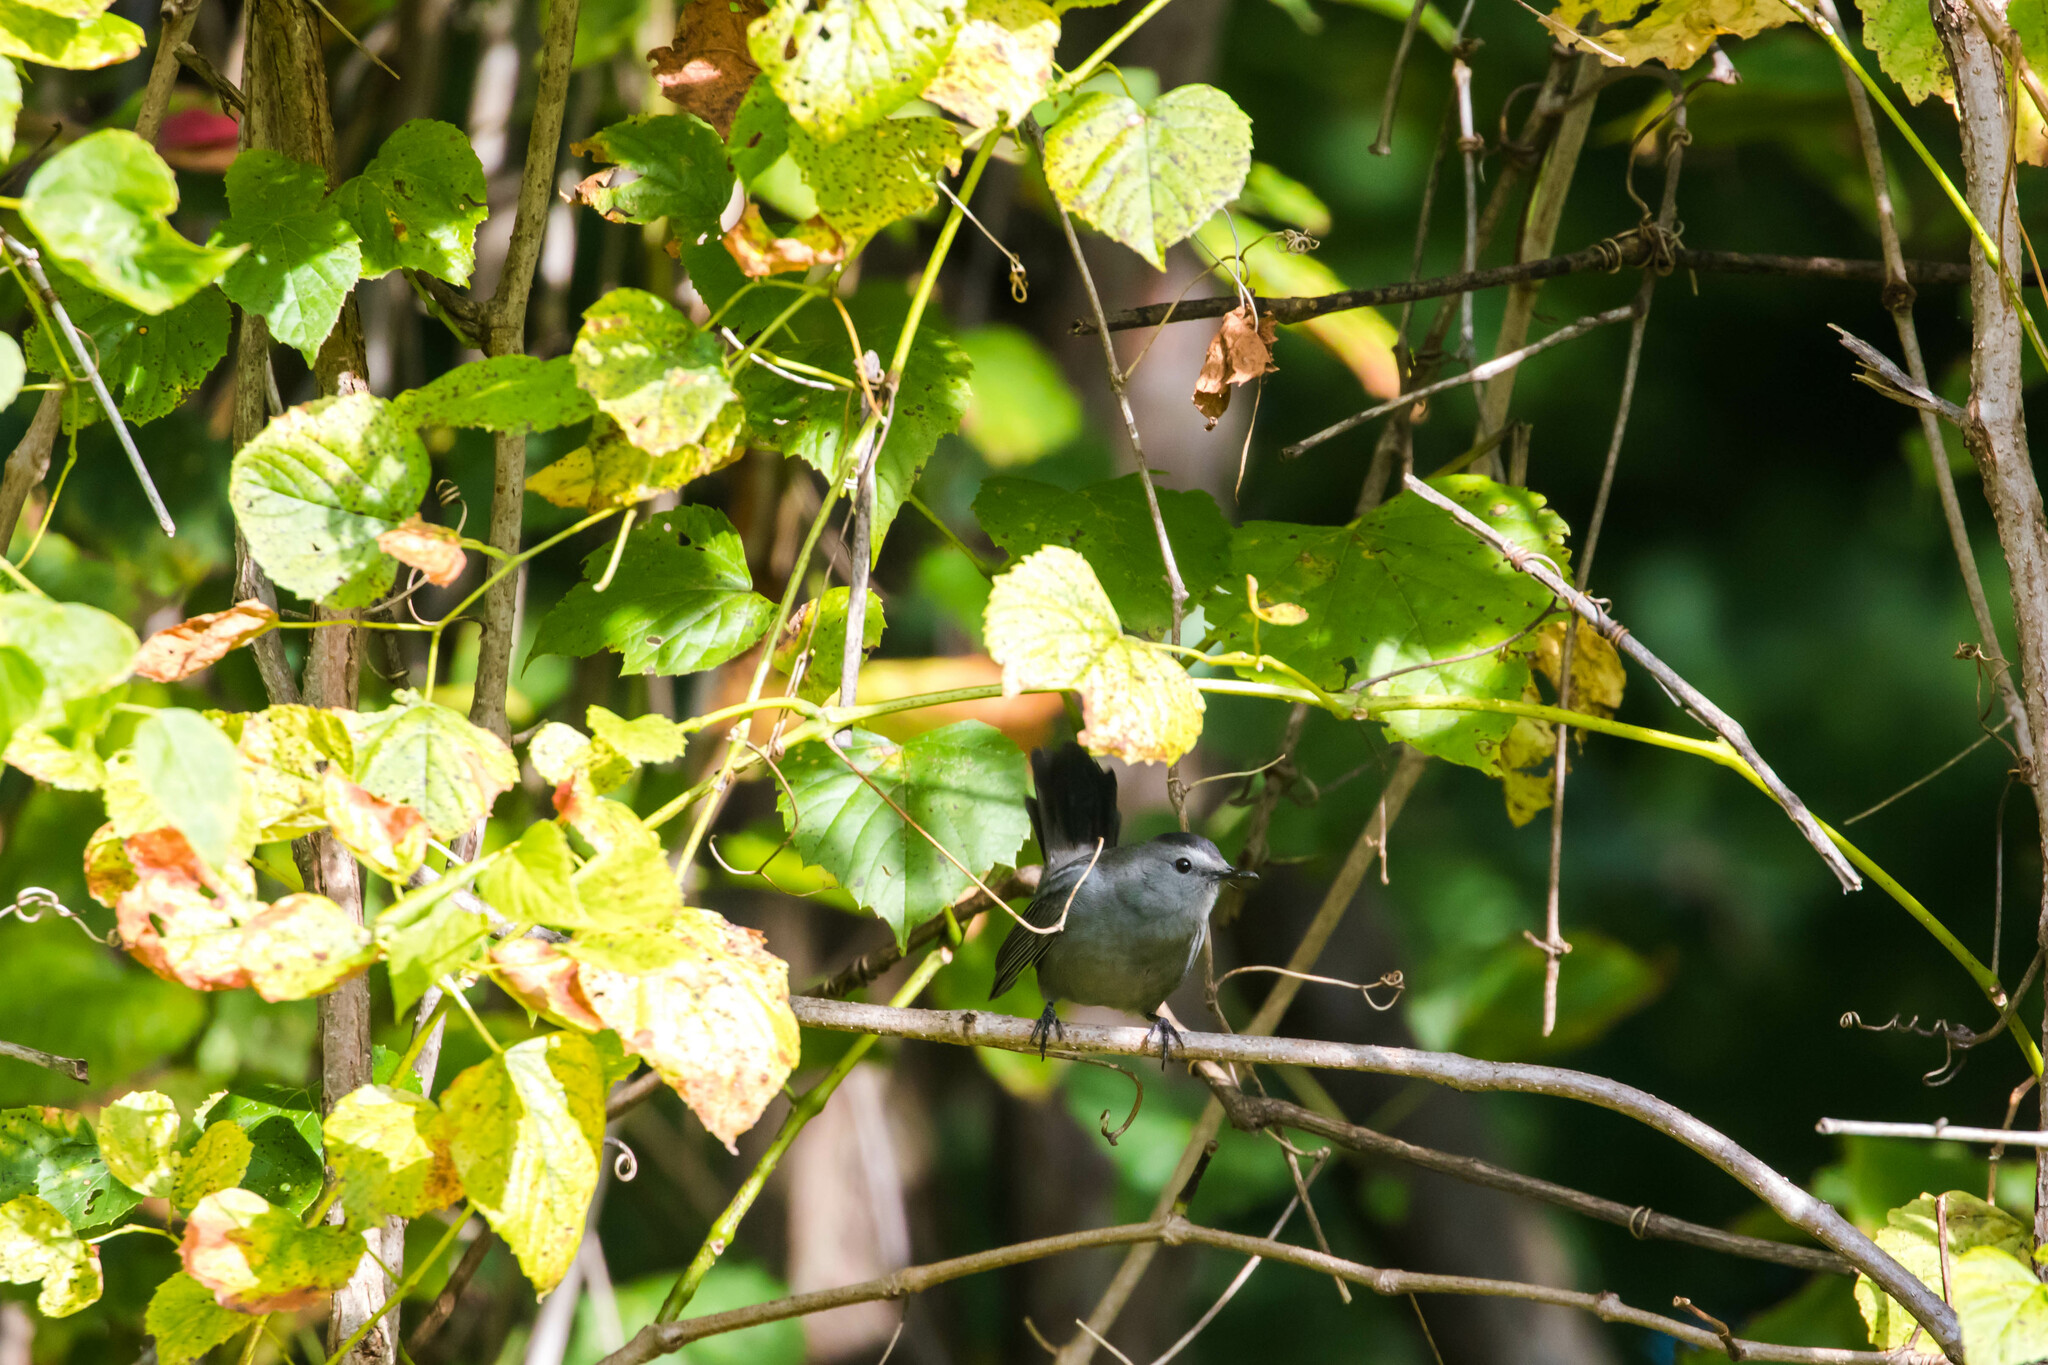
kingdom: Animalia
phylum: Chordata
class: Aves
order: Passeriformes
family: Mimidae
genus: Dumetella
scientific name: Dumetella carolinensis
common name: Gray catbird
